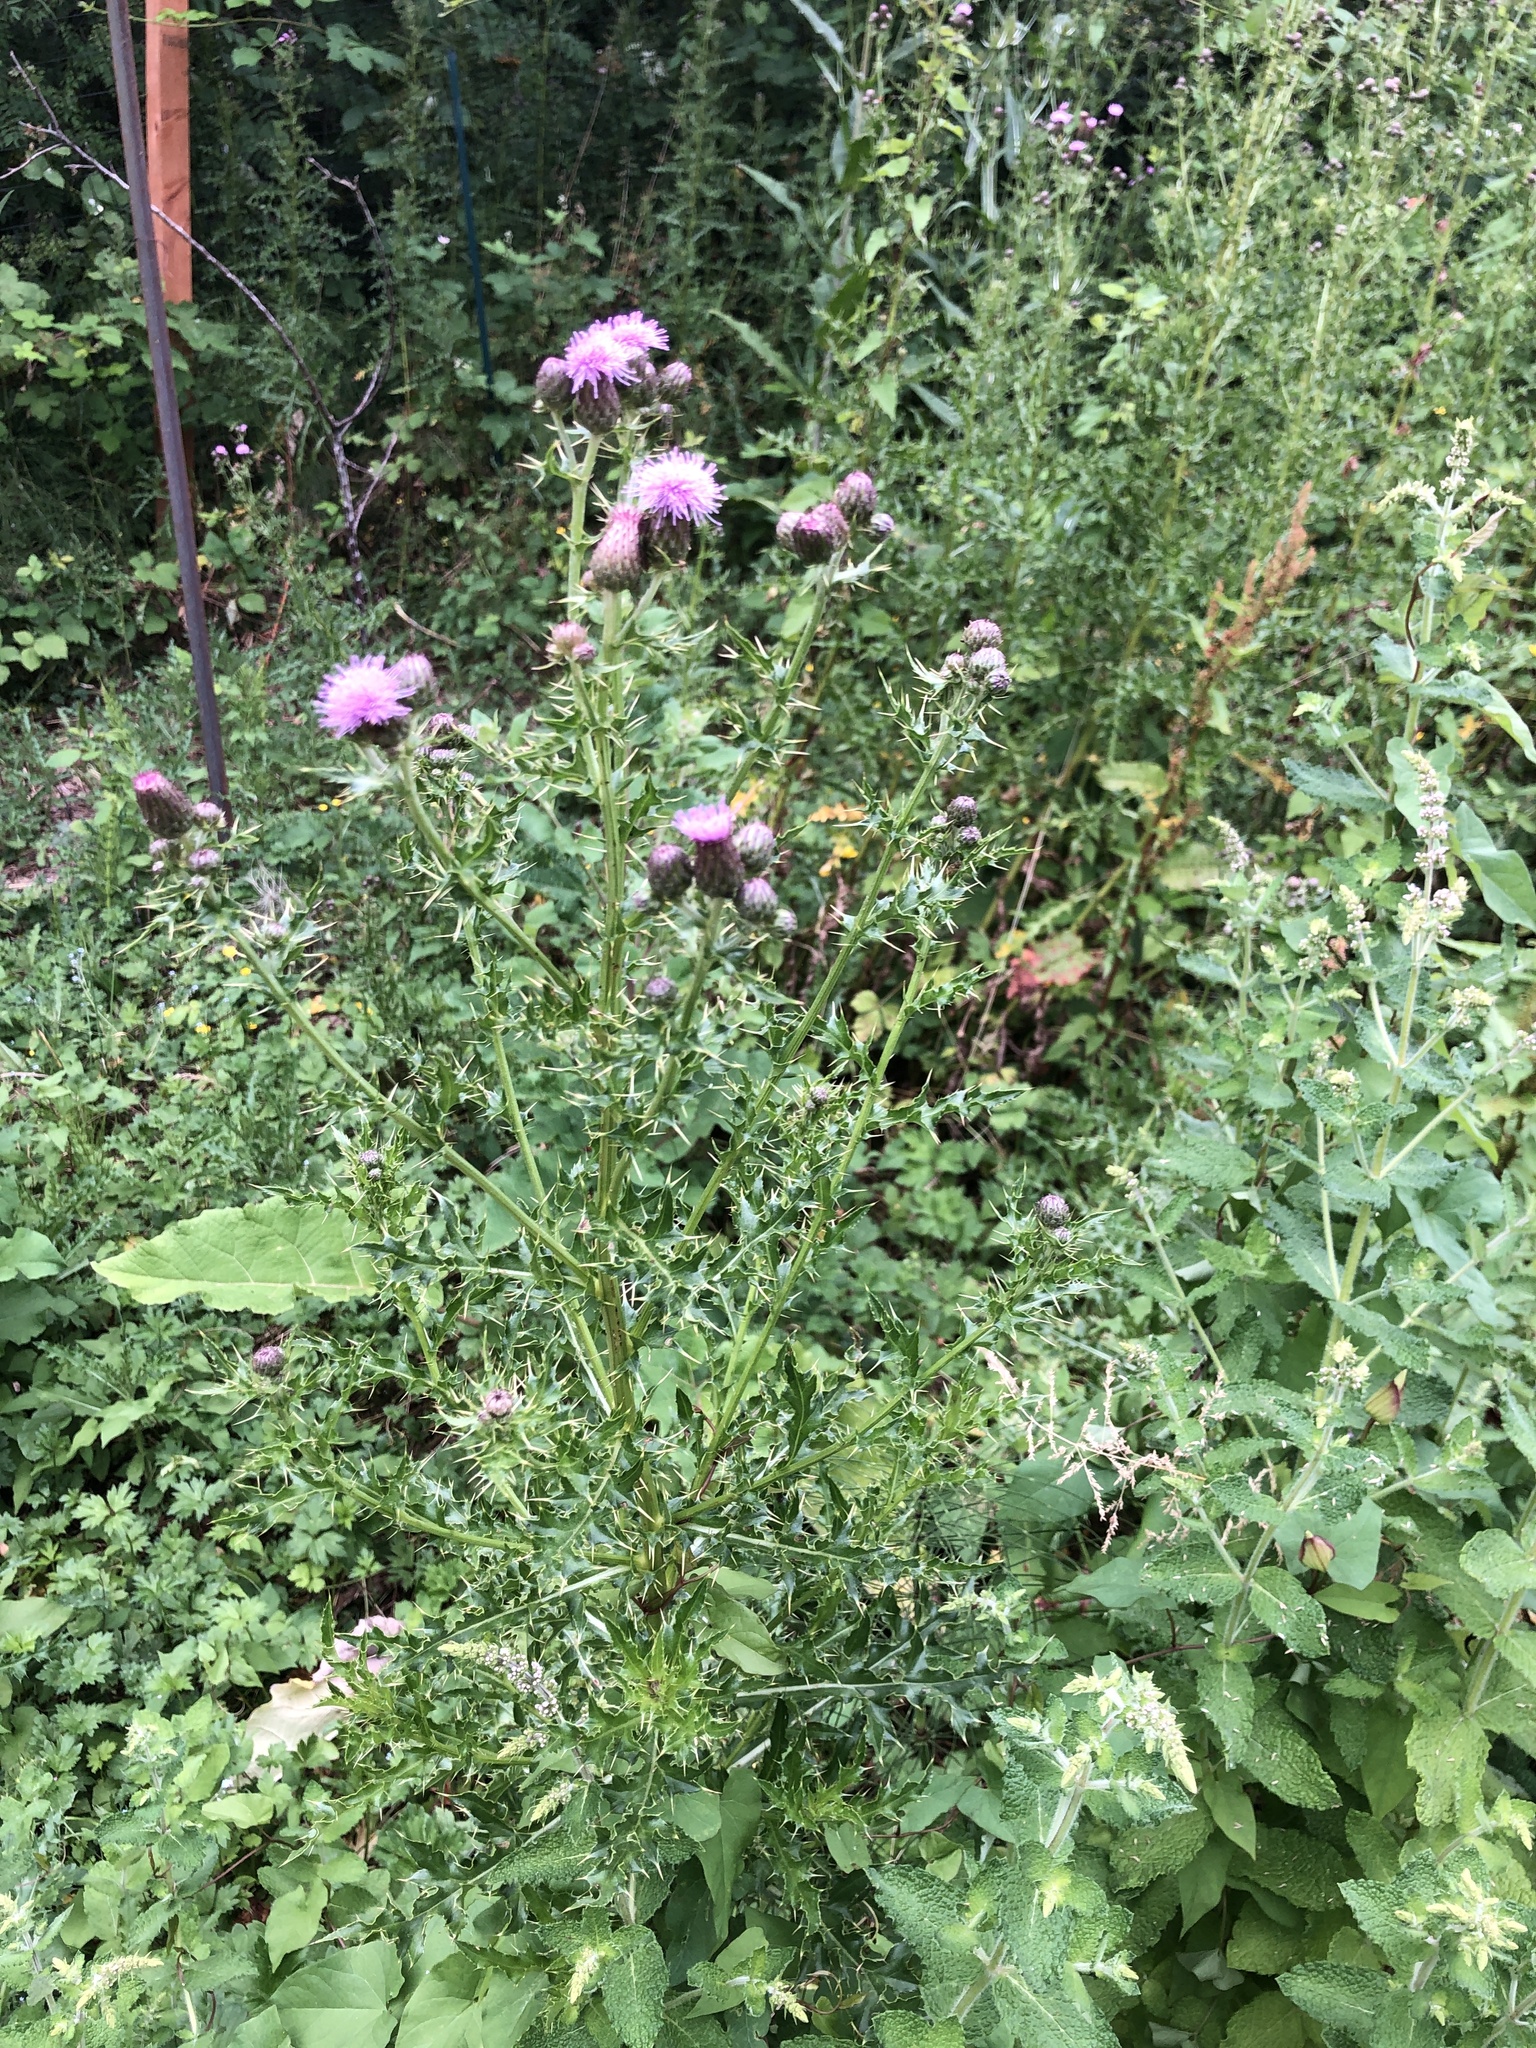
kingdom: Plantae
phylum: Tracheophyta
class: Magnoliopsida
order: Asterales
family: Asteraceae
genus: Cirsium
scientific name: Cirsium arvense
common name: Creeping thistle
